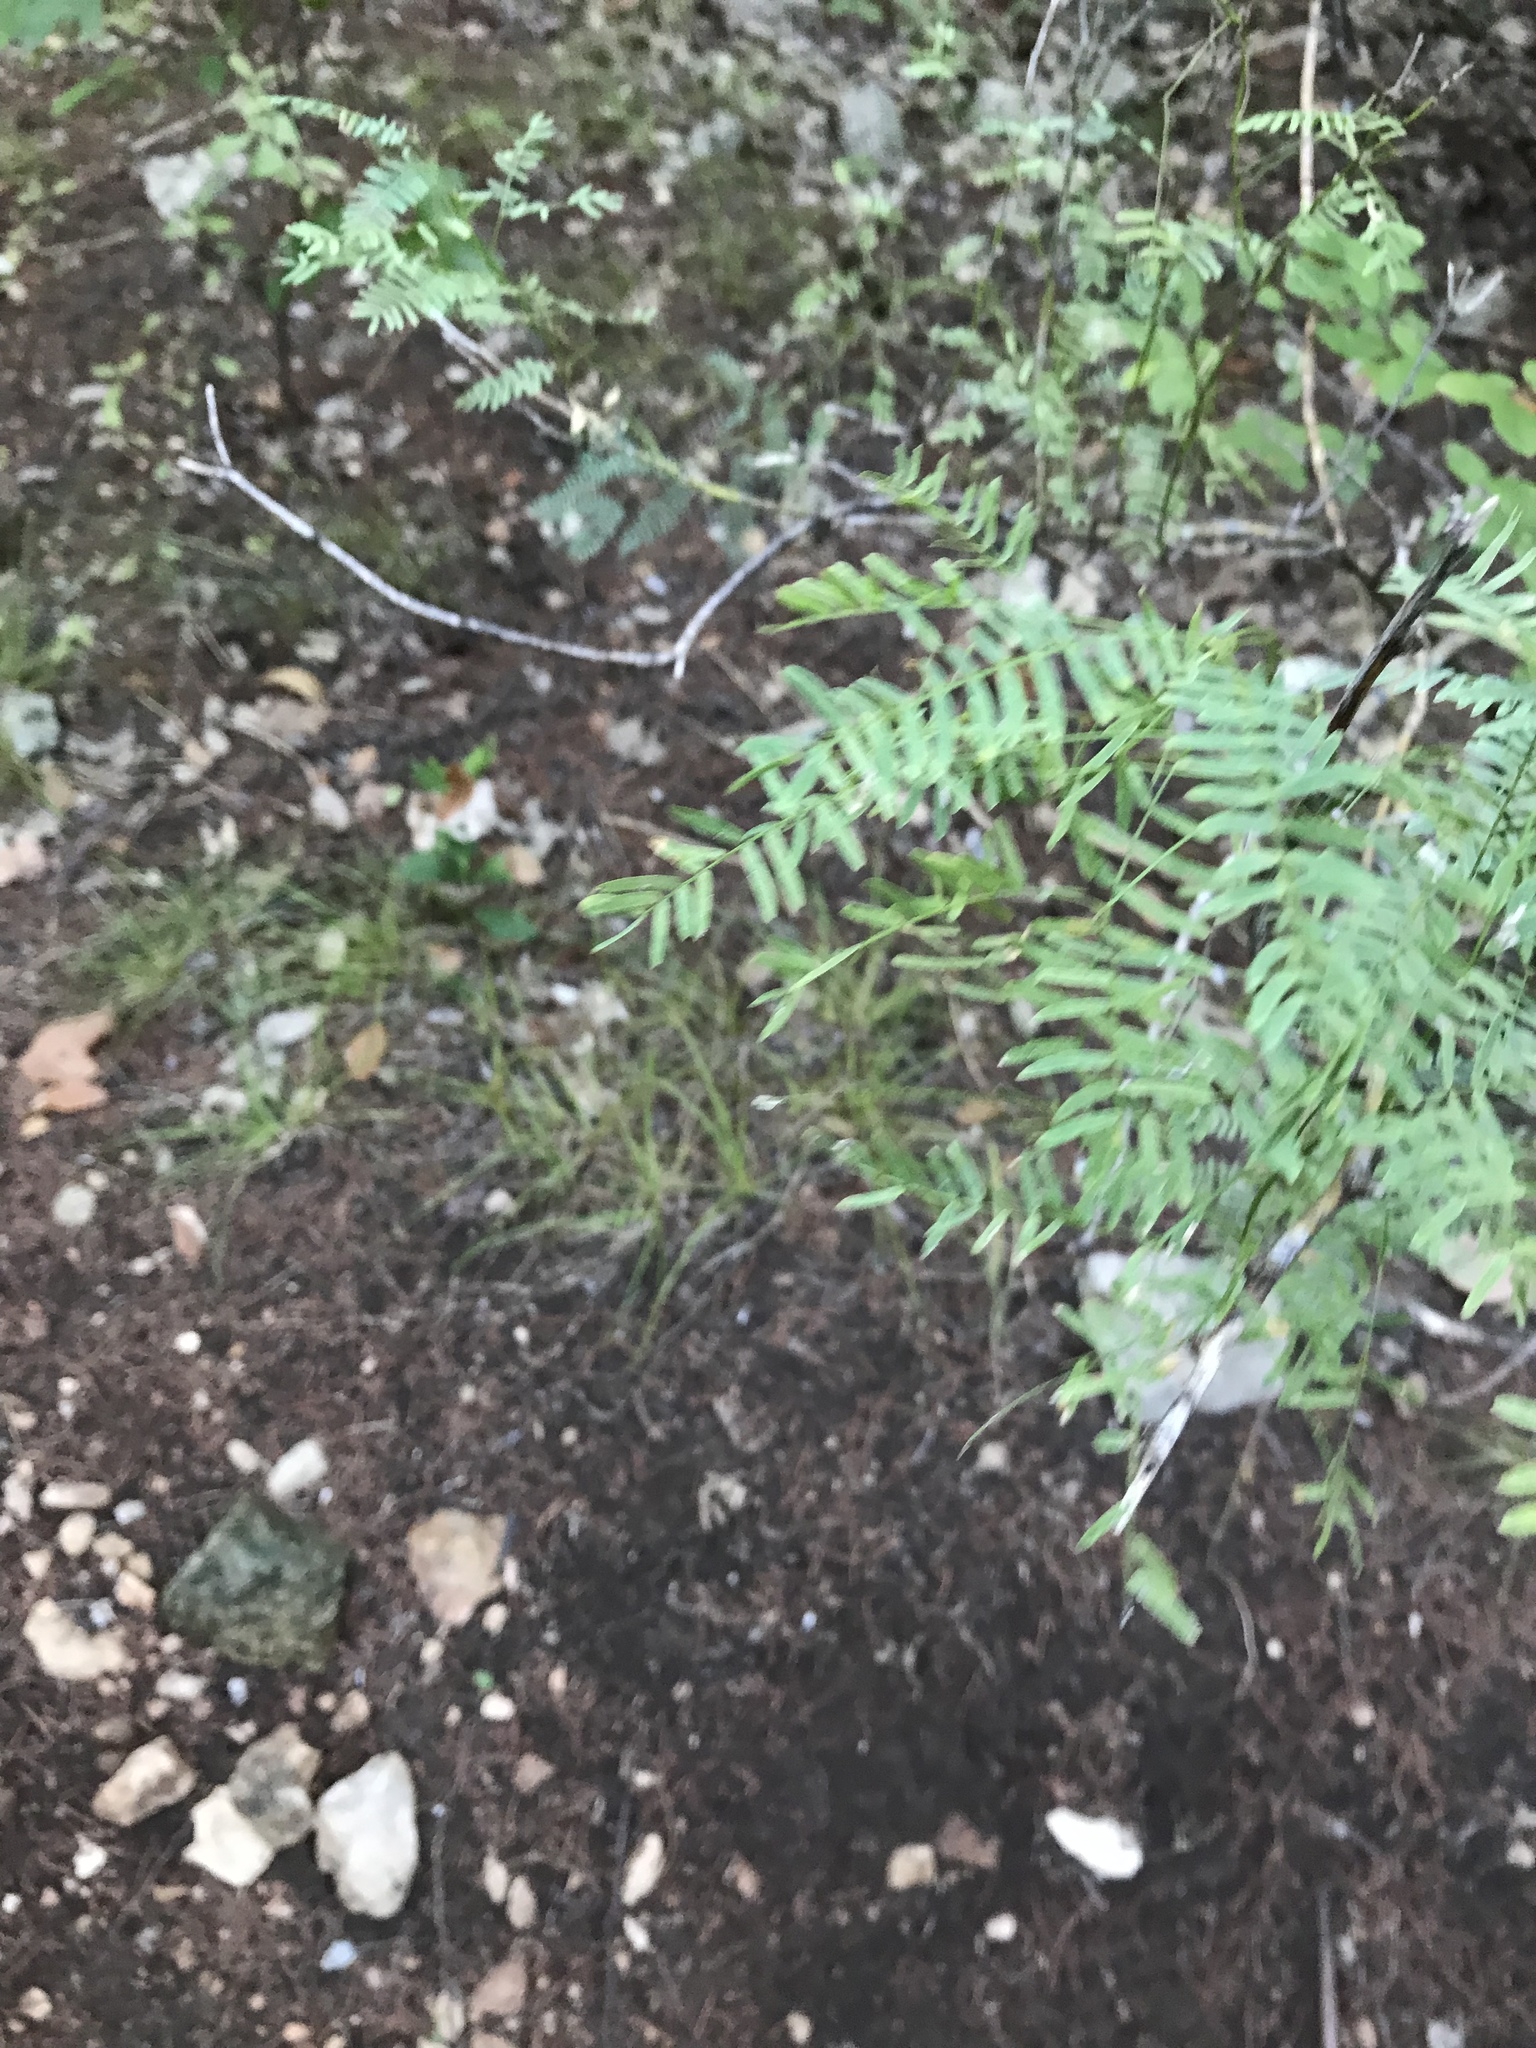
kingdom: Plantae
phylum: Tracheophyta
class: Magnoliopsida
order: Fabales
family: Fabaceae
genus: Prosopis
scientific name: Prosopis glandulosa
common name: Honey mesquite
